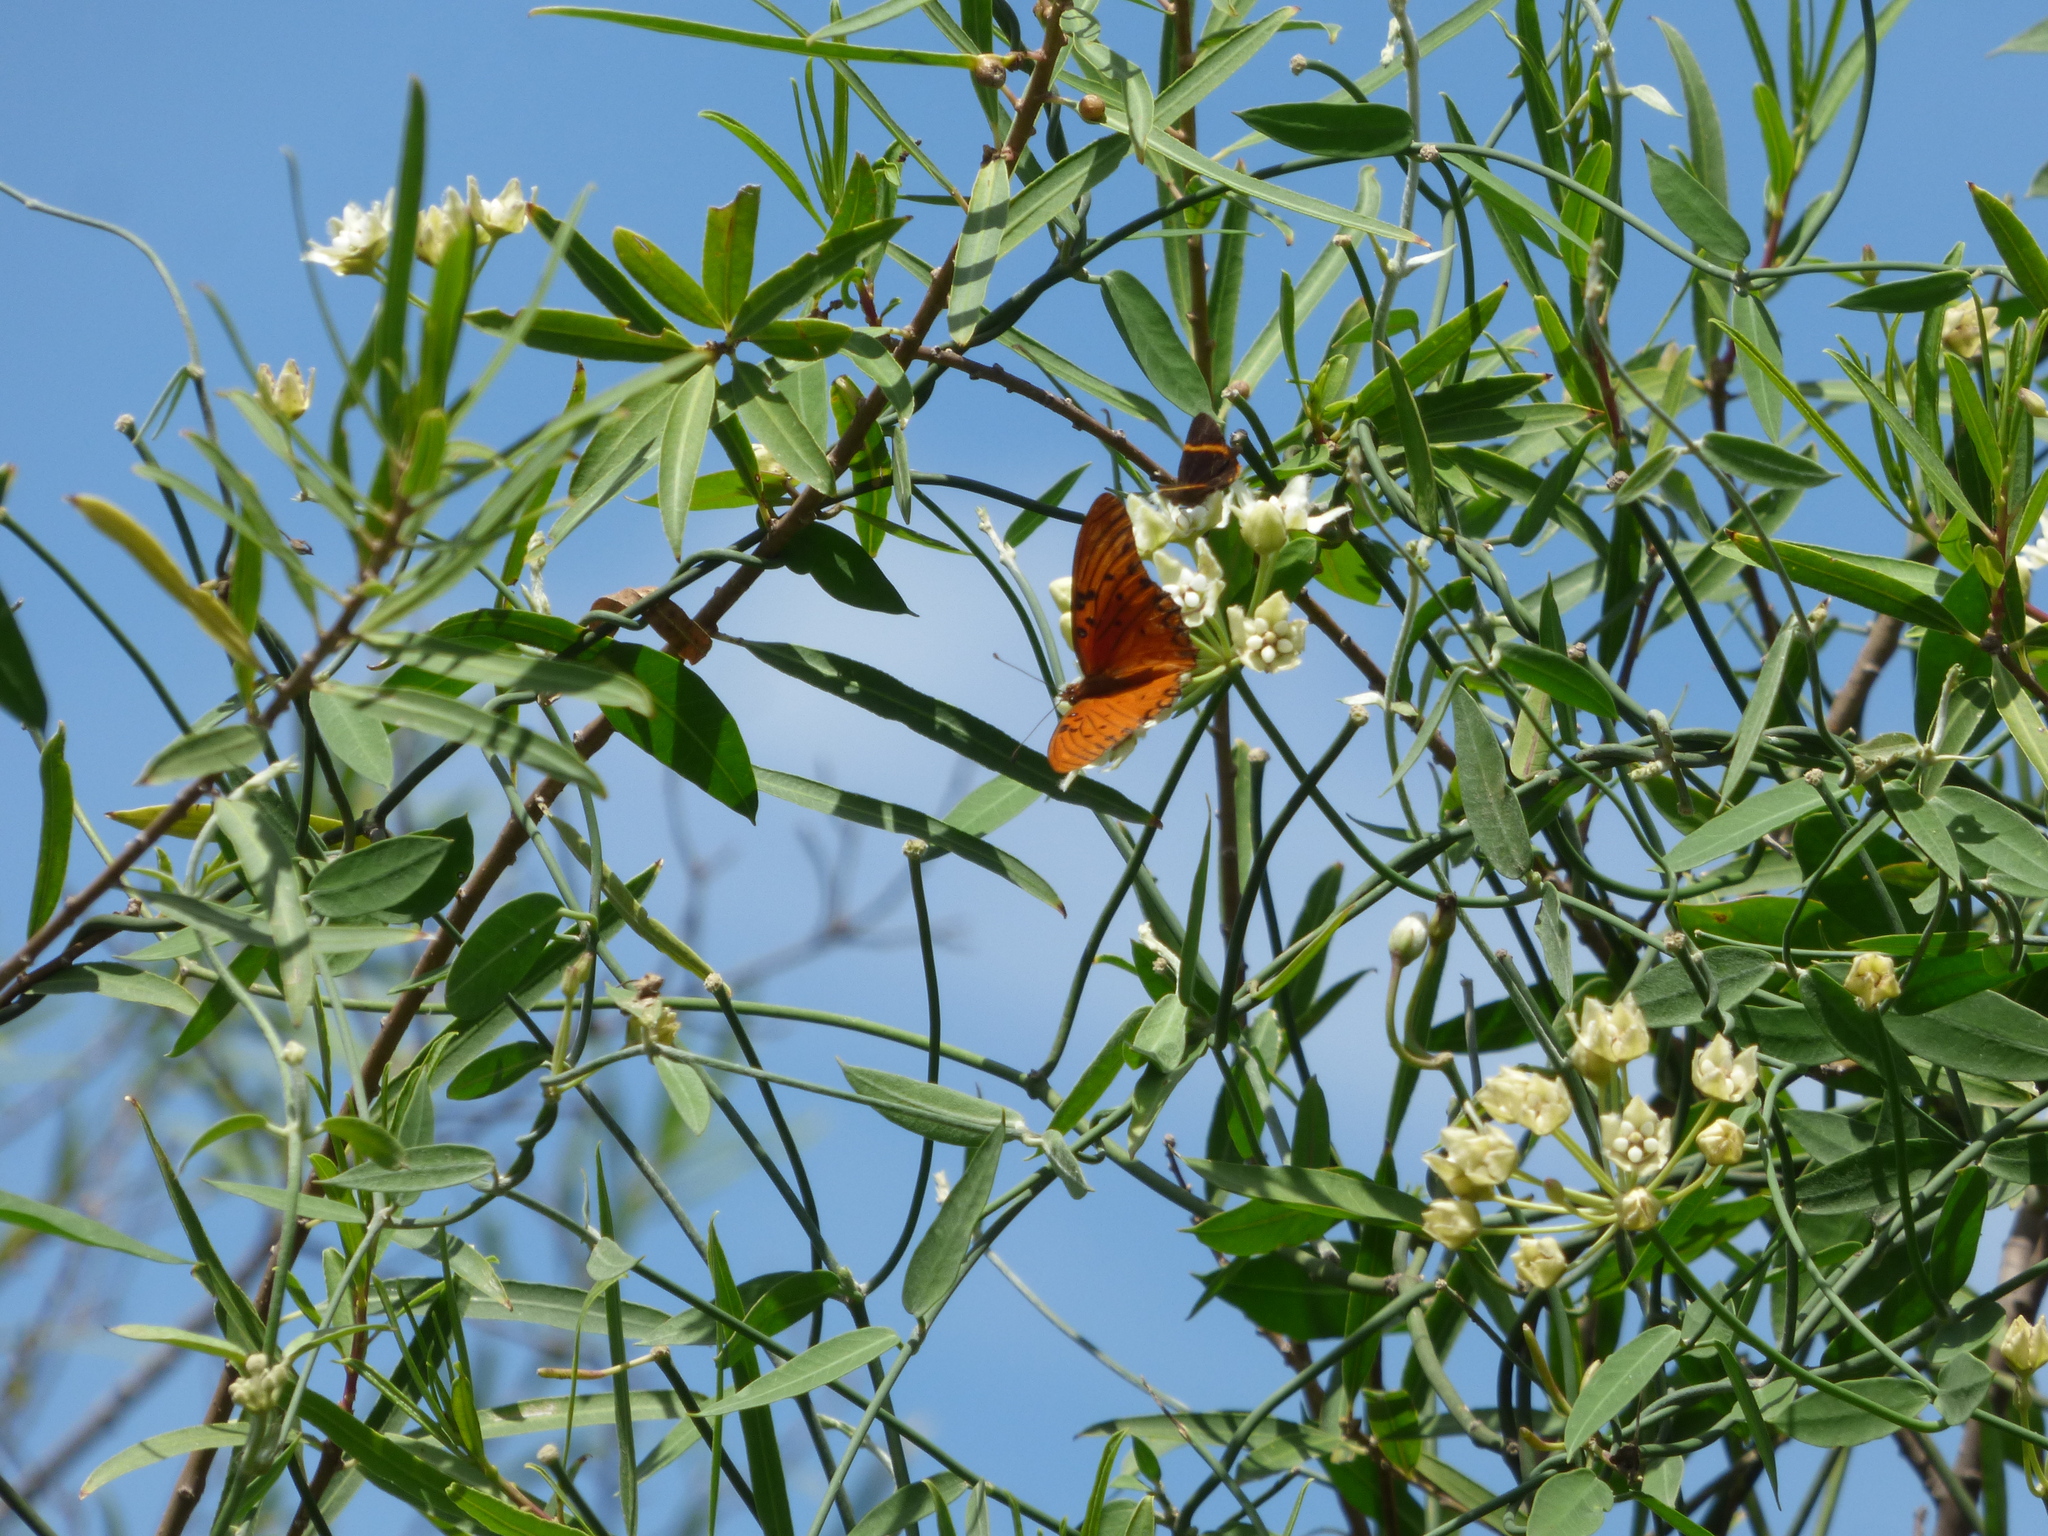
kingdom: Animalia
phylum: Arthropoda
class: Insecta
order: Lepidoptera
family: Nymphalidae
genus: Dione
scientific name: Dione vanillae
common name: Gulf fritillary
